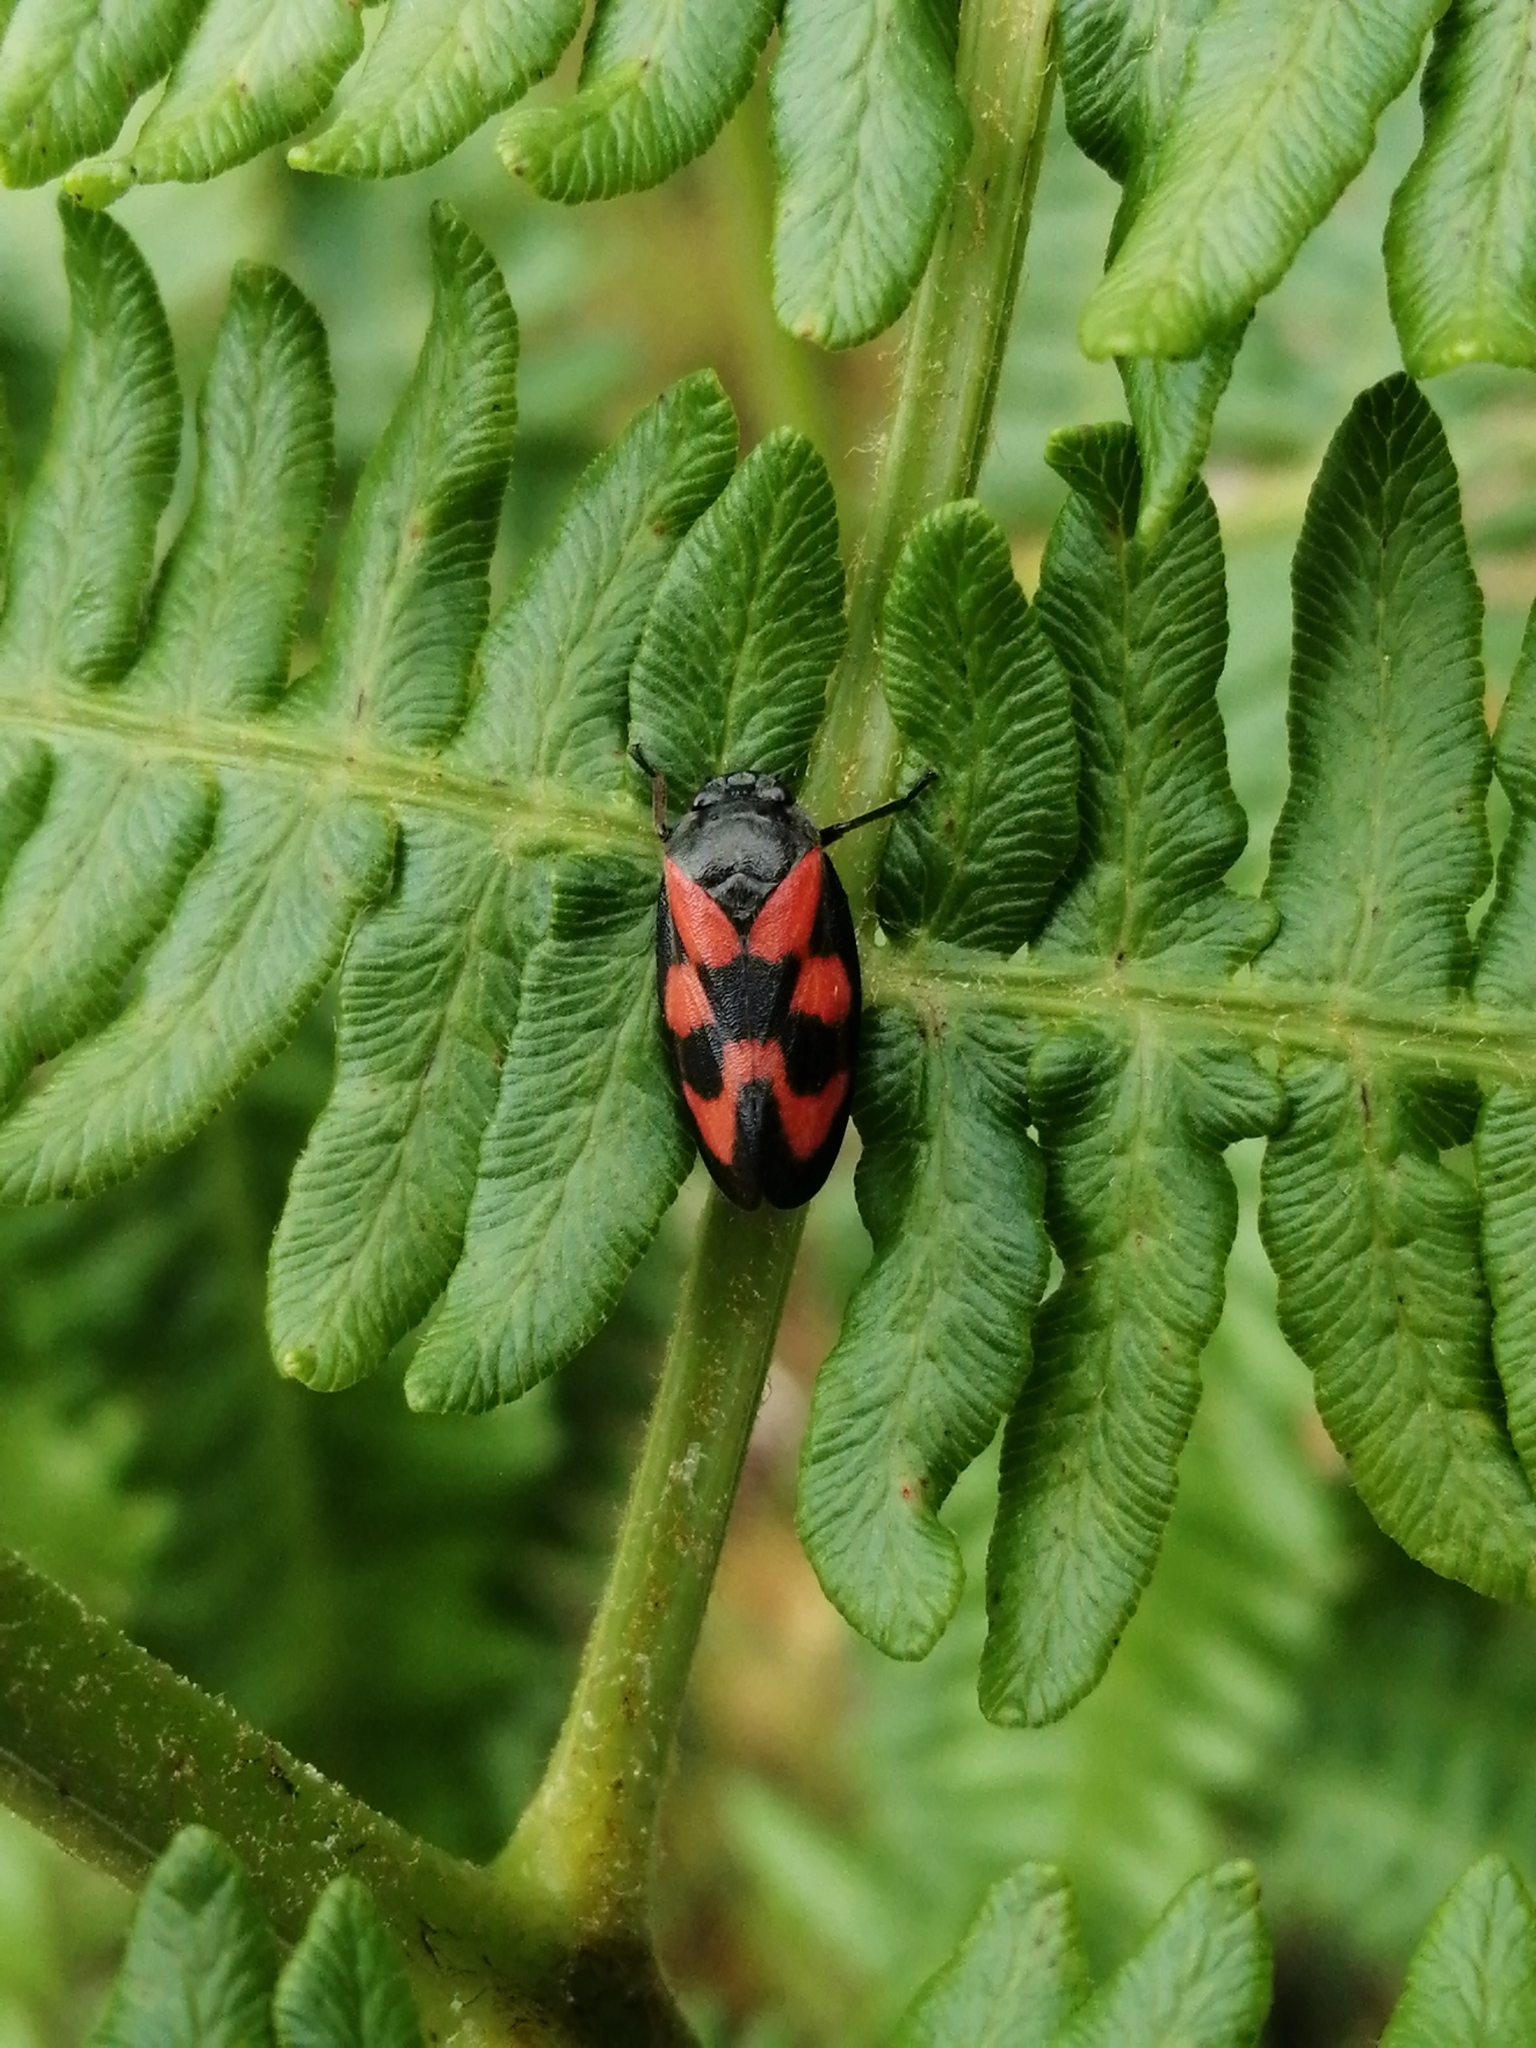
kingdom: Animalia
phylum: Arthropoda
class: Insecta
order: Hemiptera
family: Cercopidae
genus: Cercopis
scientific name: Cercopis vulnerata
